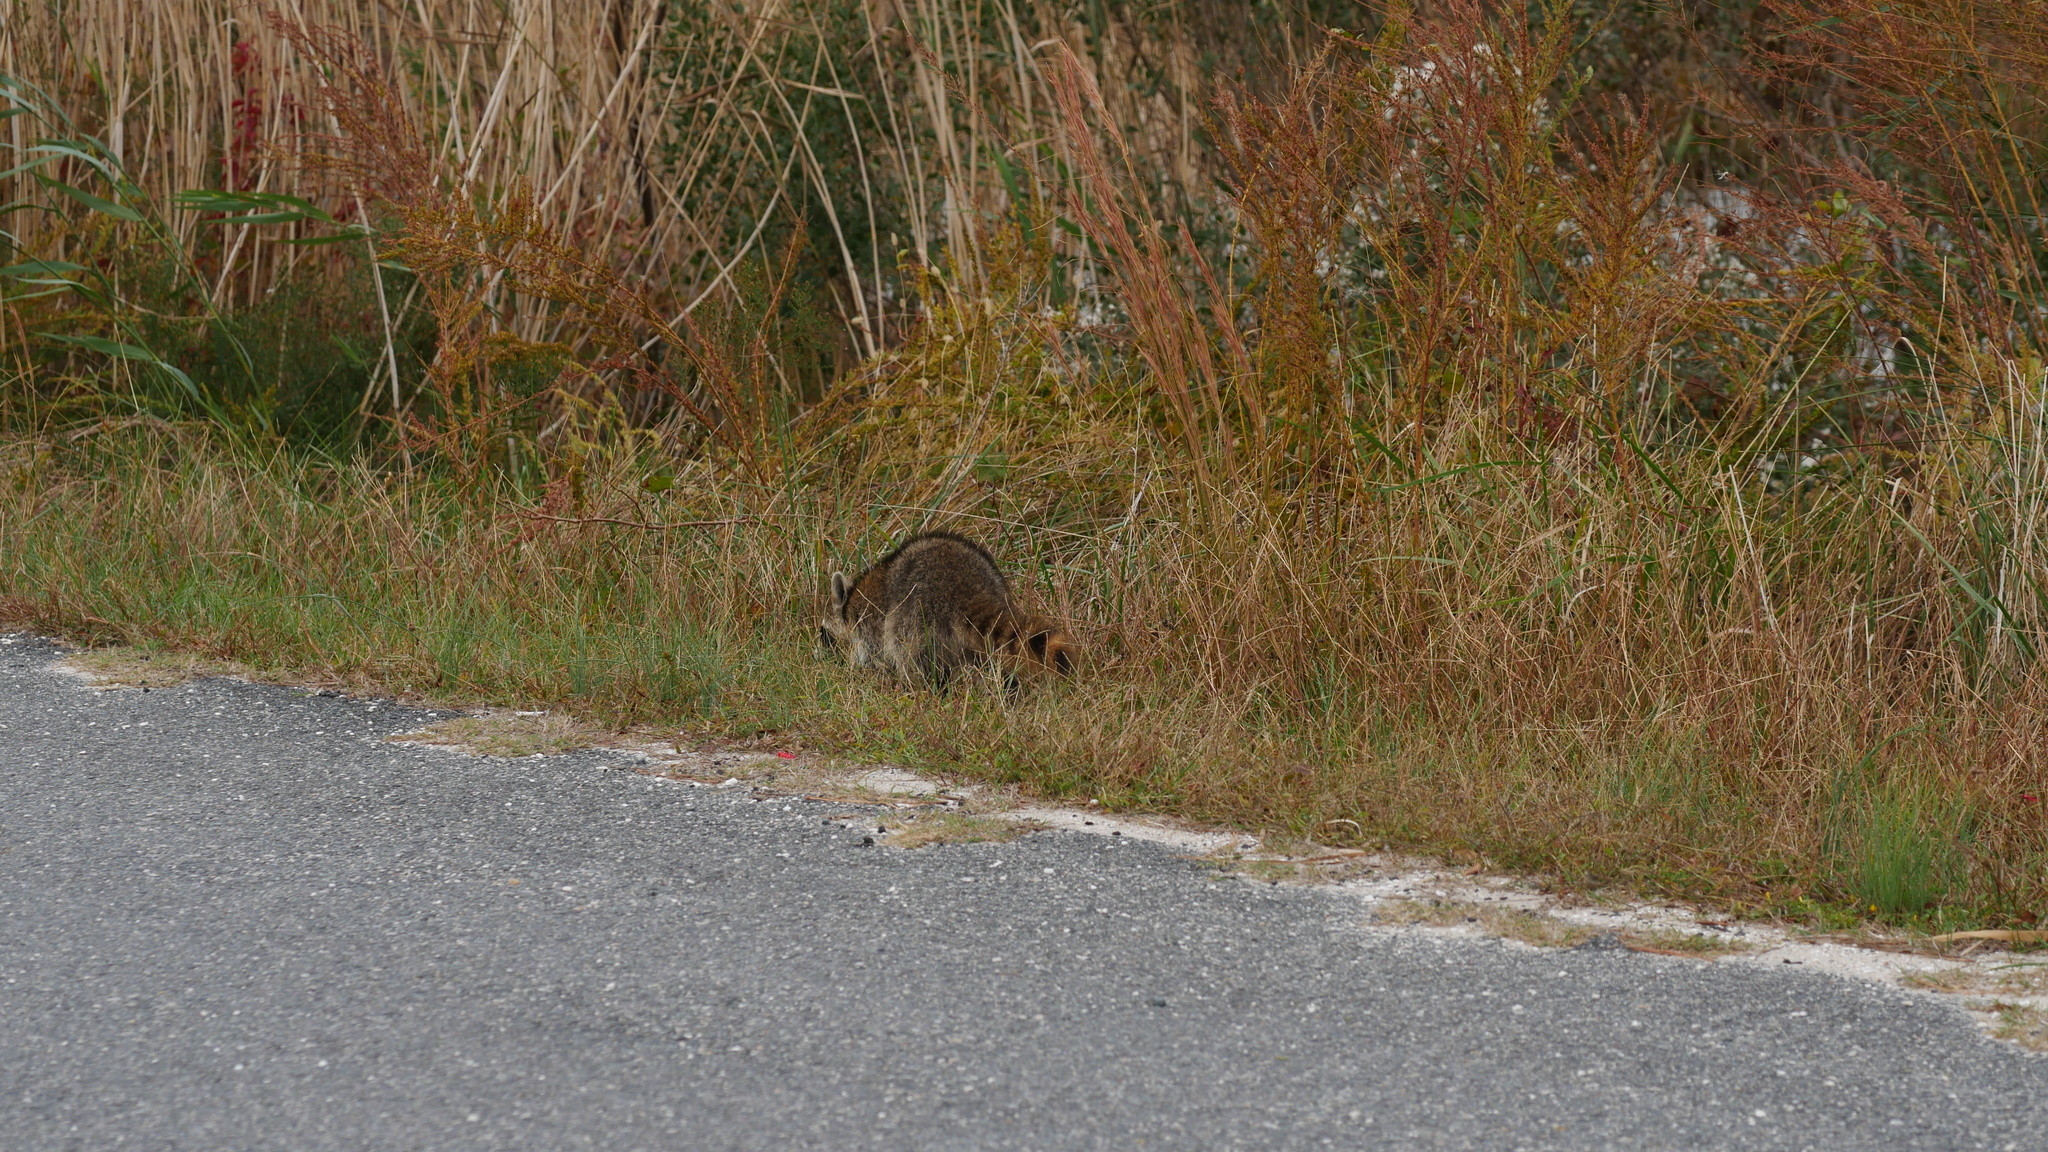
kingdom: Animalia
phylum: Chordata
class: Mammalia
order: Carnivora
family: Procyonidae
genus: Procyon
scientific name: Procyon lotor
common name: Raccoon
